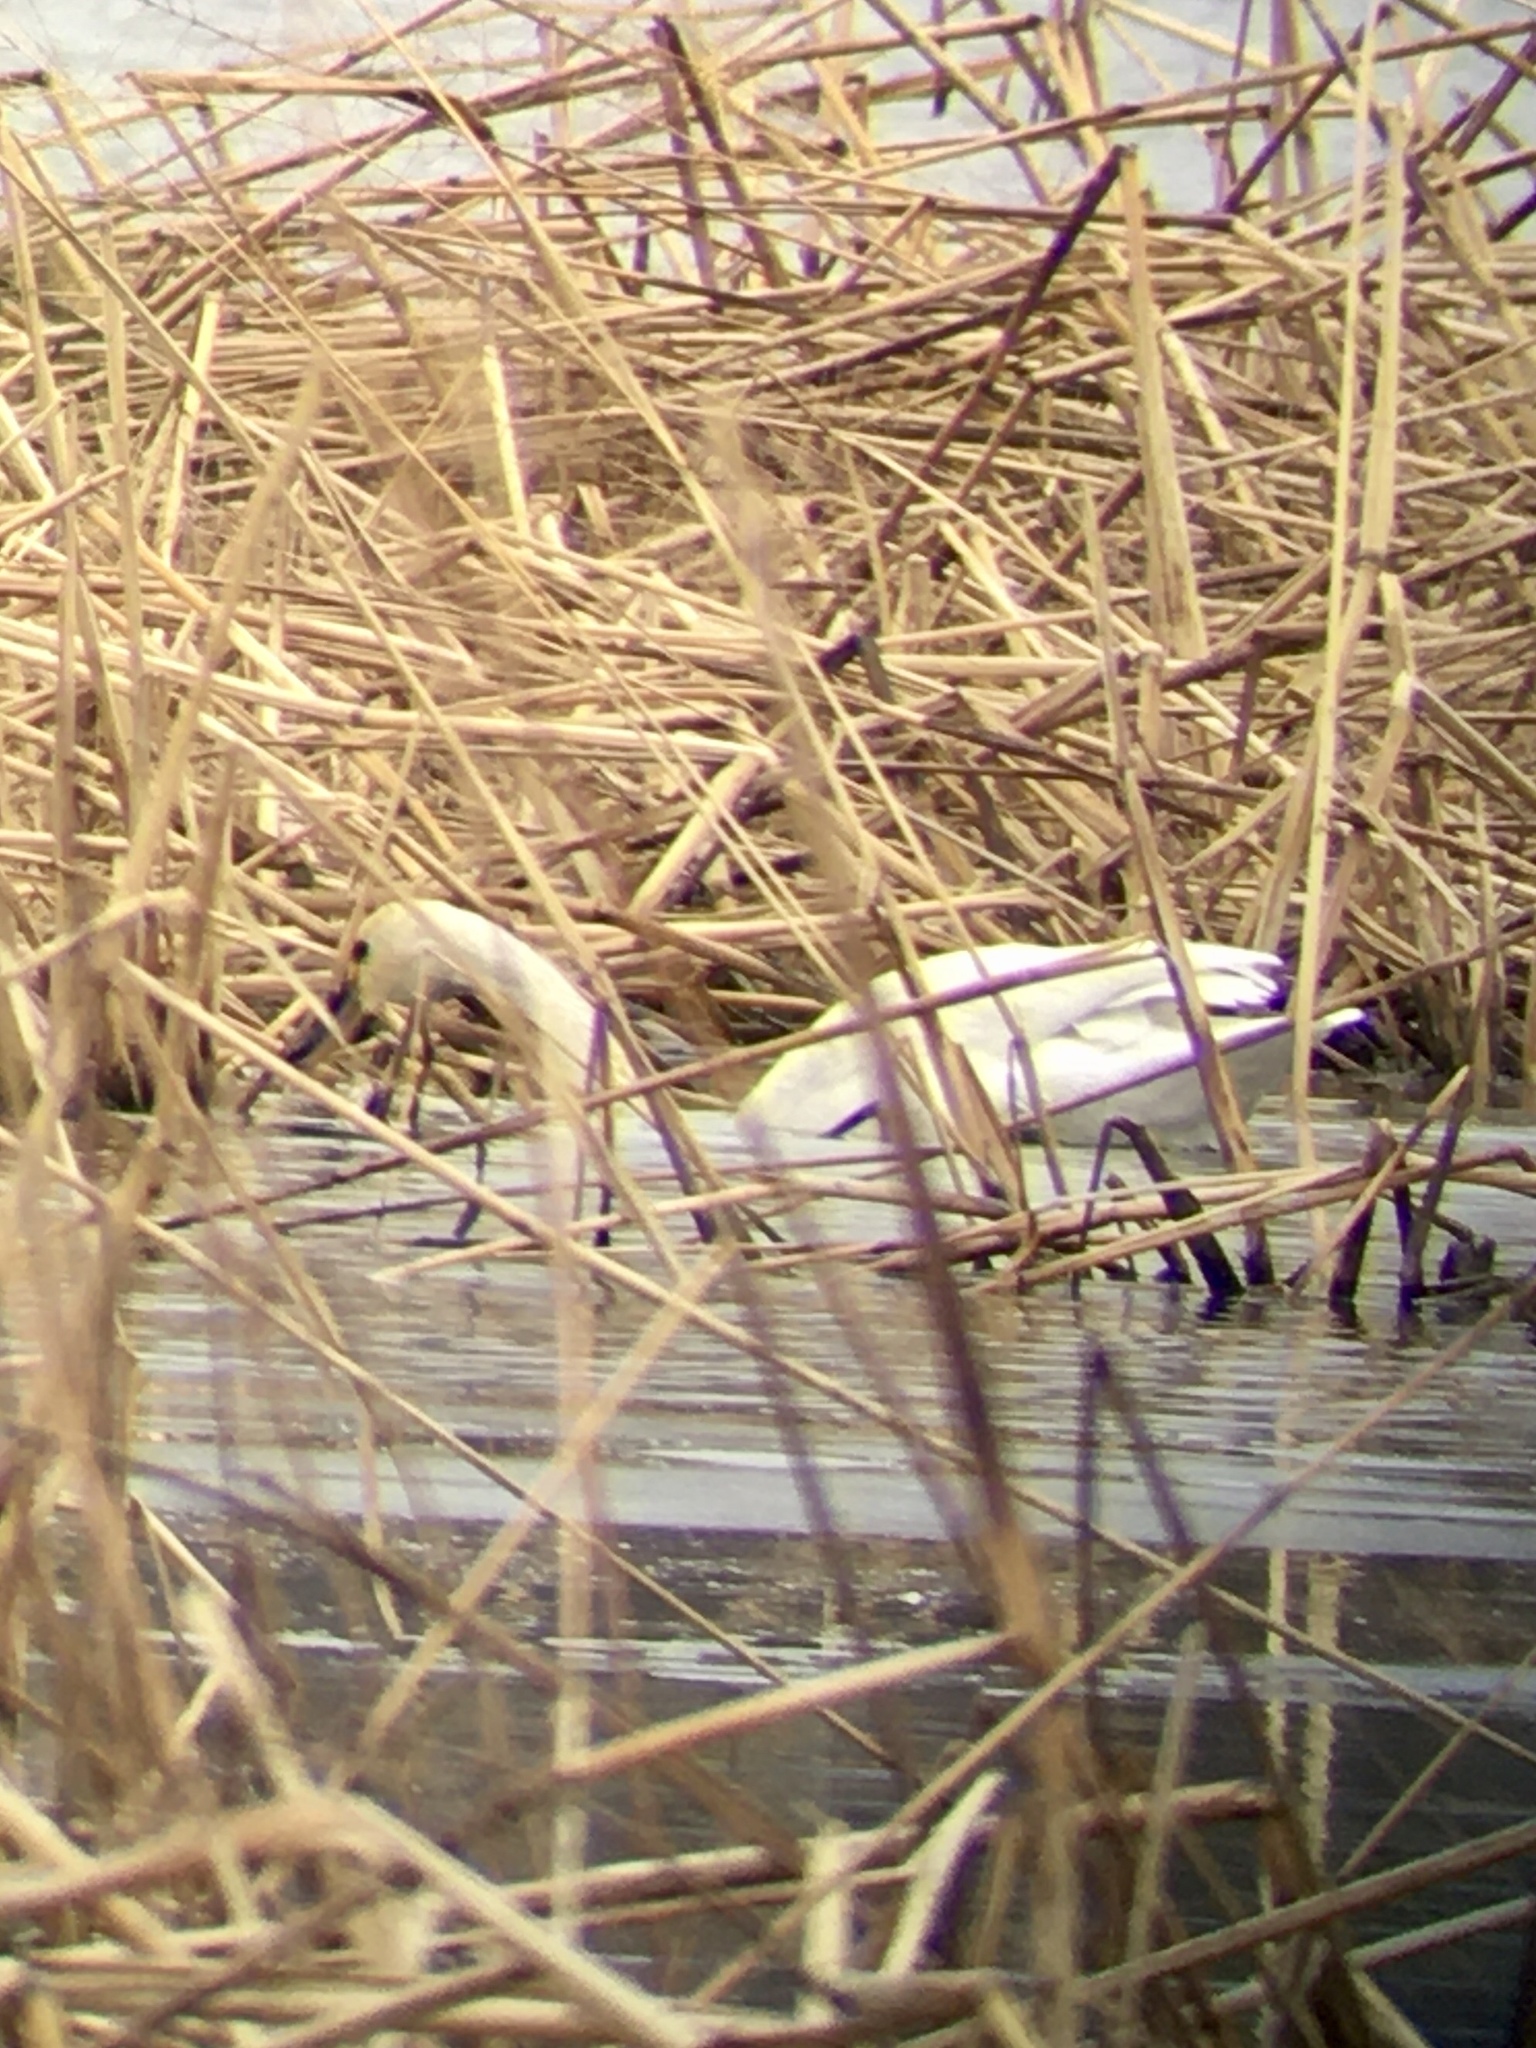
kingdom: Animalia
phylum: Chordata
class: Aves
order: Anseriformes
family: Anatidae
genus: Cygnus
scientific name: Cygnus columbianus
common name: Tundra swan
